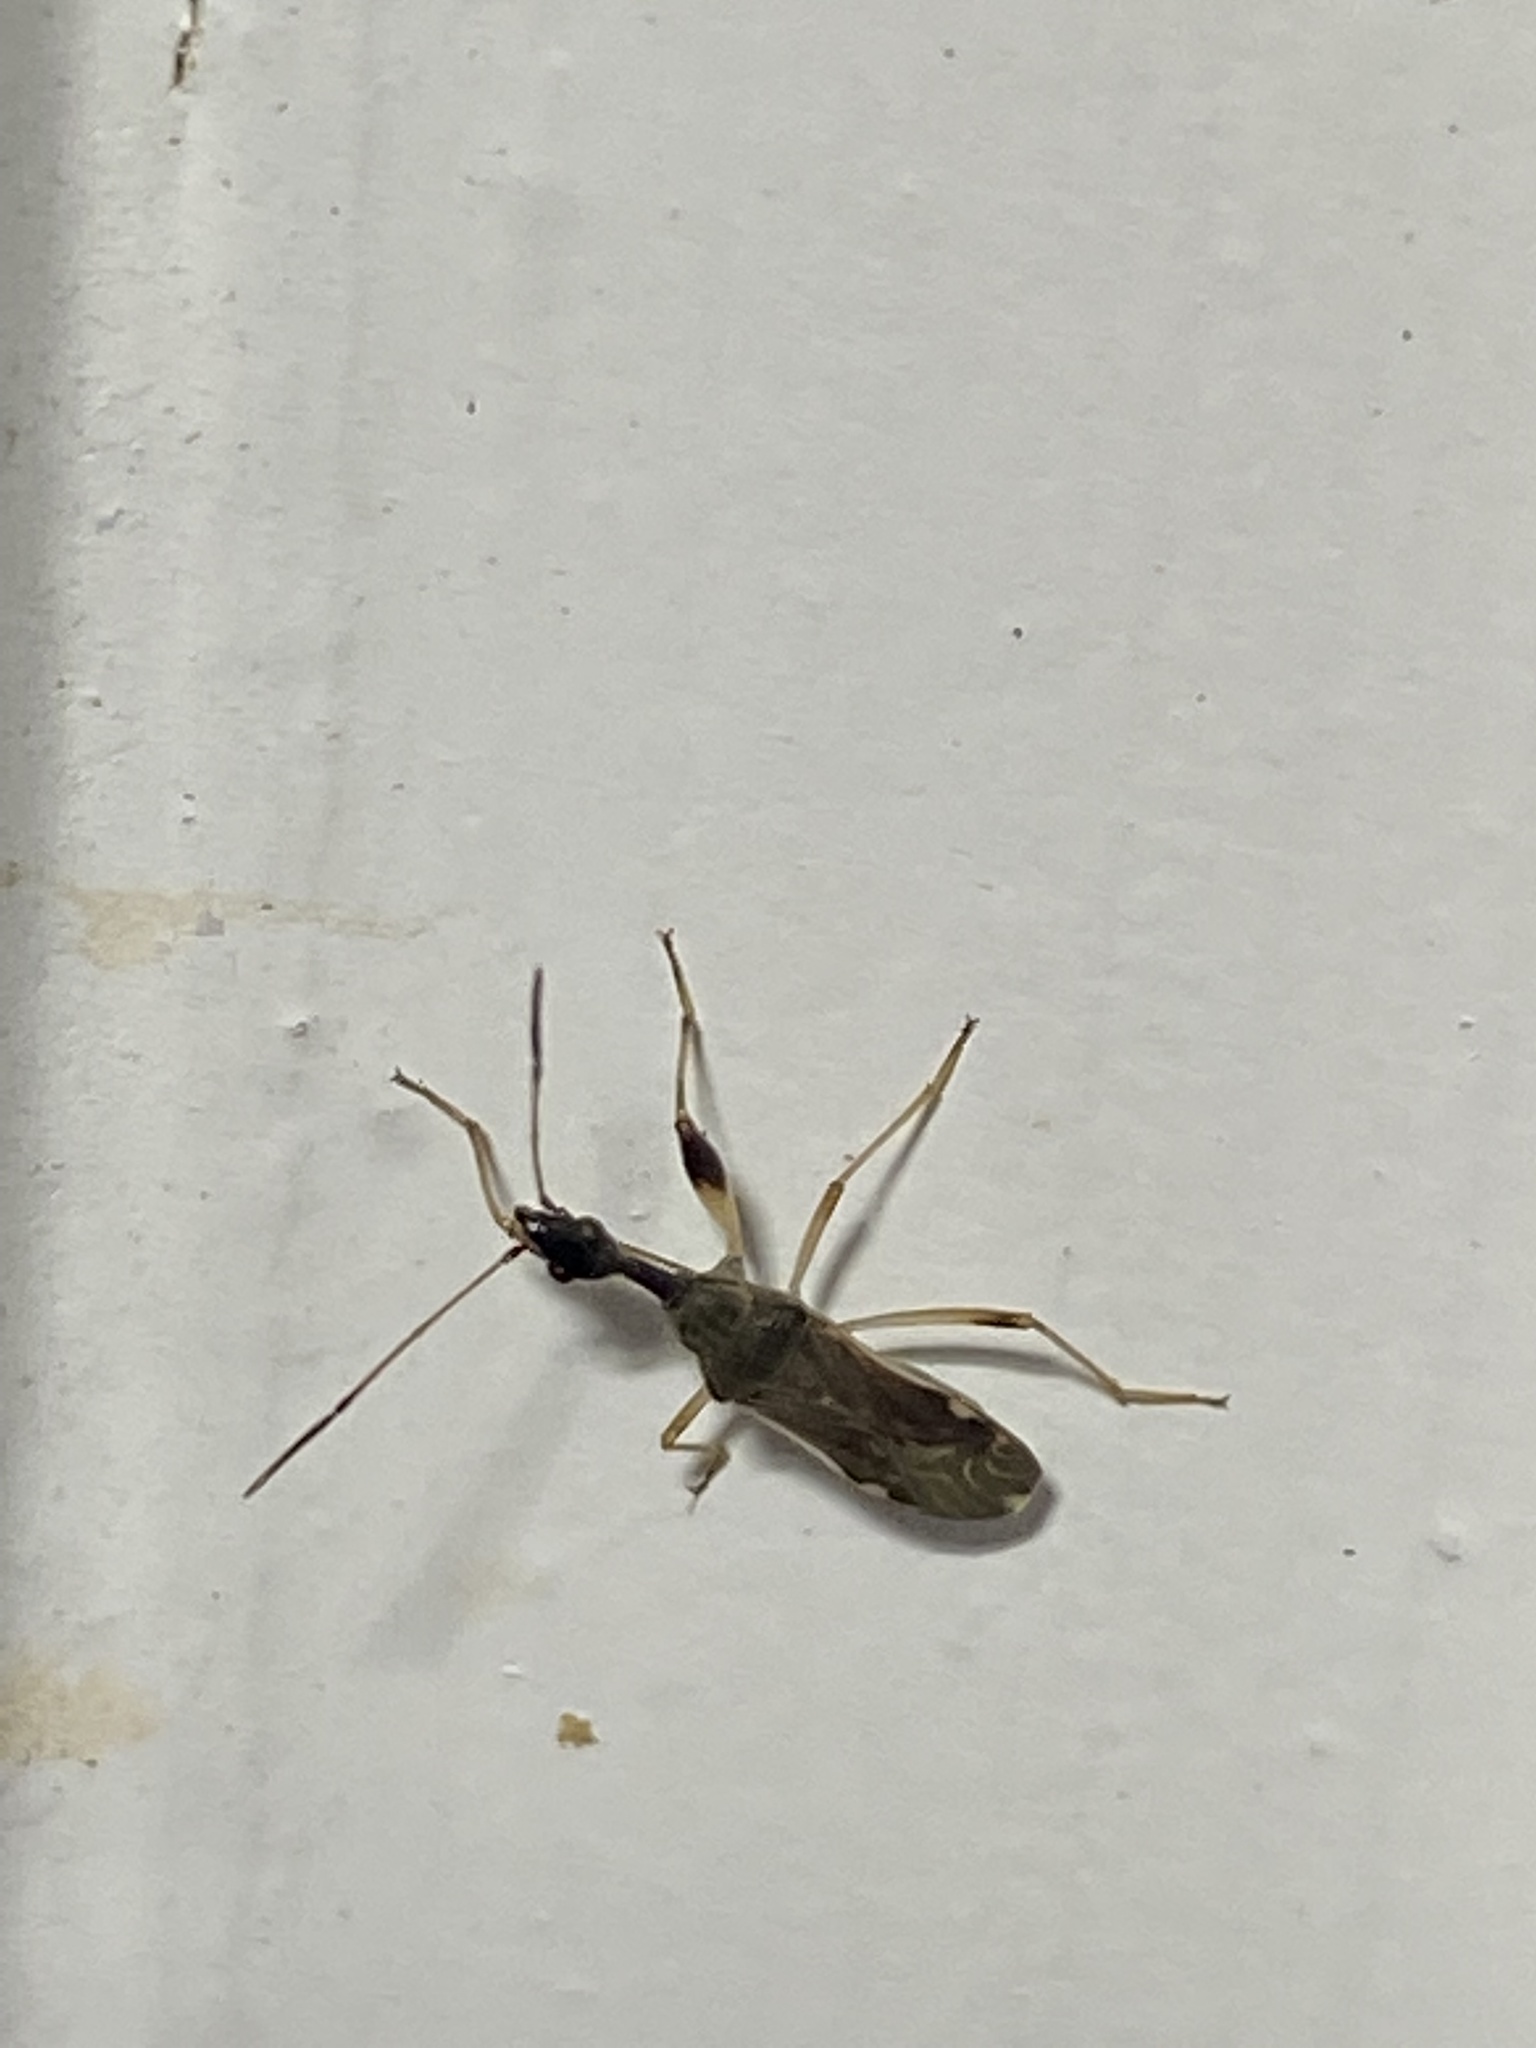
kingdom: Animalia
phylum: Arthropoda
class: Insecta
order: Hemiptera
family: Rhyparochromidae
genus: Myodocha
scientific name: Myodocha serripes
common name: Long-necked seed bug
